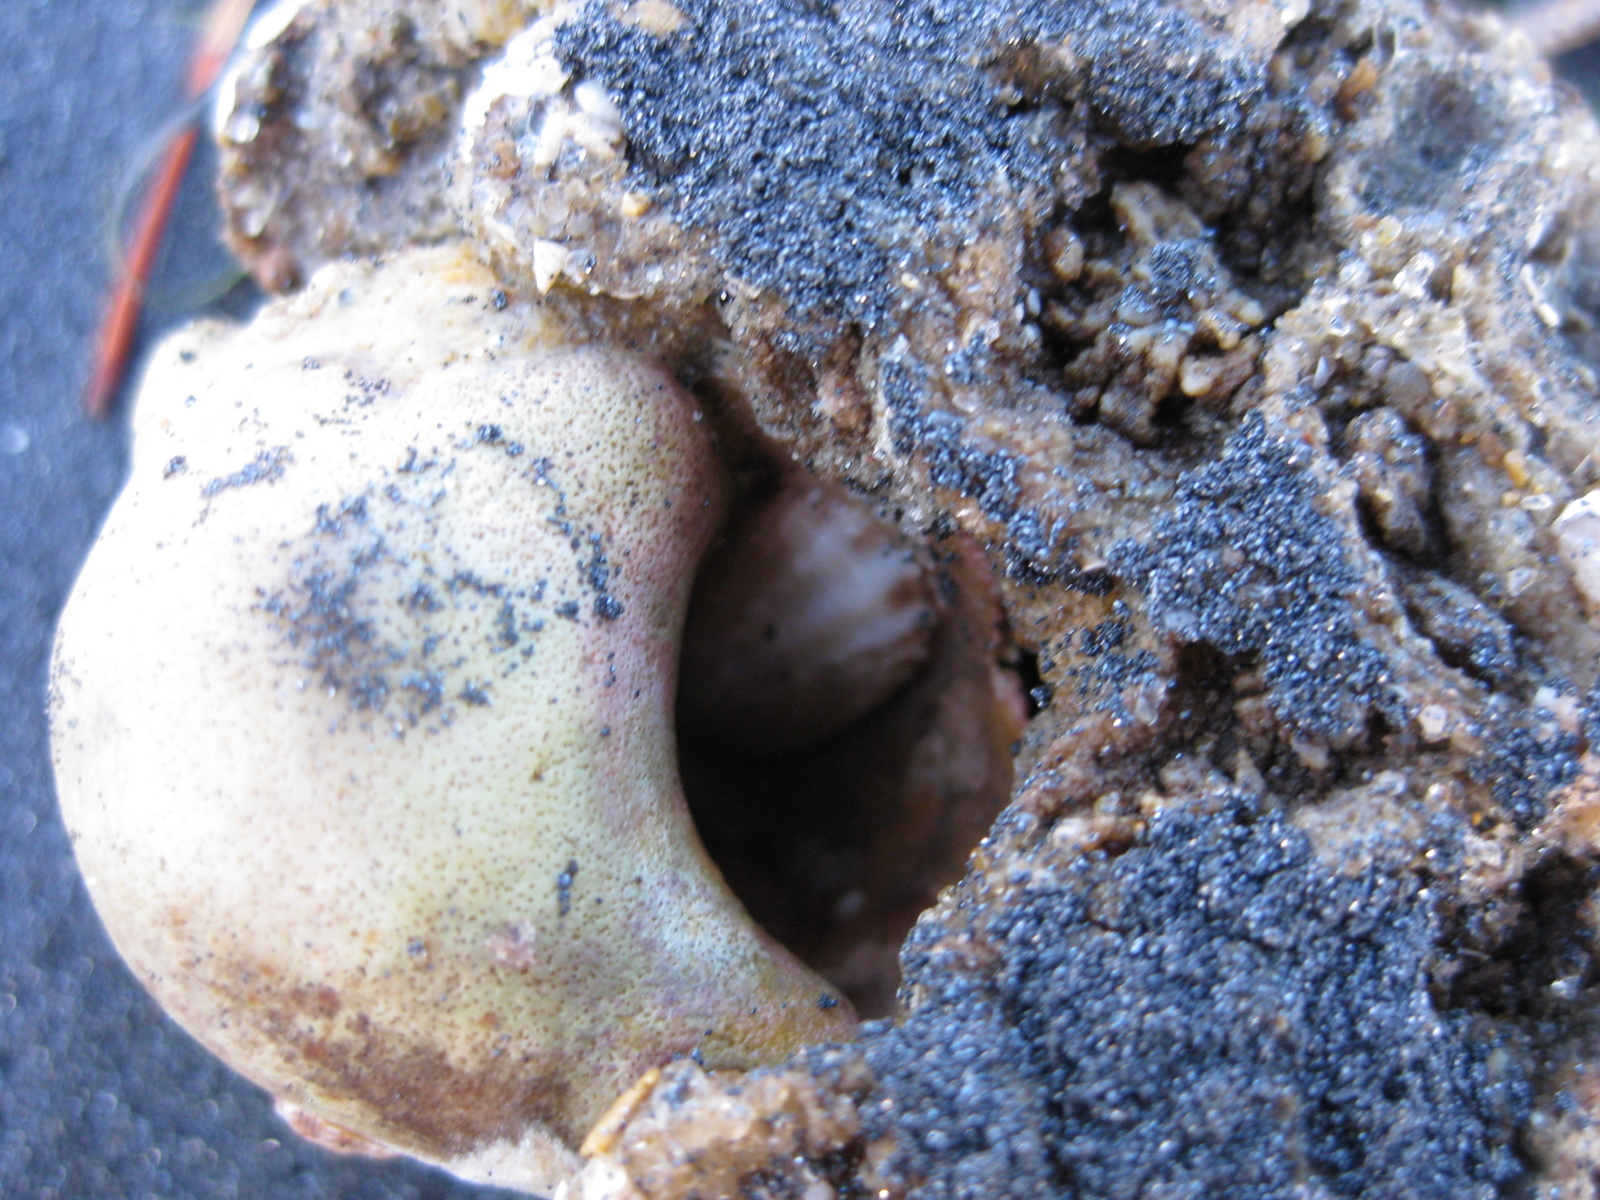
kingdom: Animalia
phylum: Mollusca
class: Gastropoda
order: Littorinimorpha
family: Calyptraeidae
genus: Maoricrypta
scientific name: Maoricrypta costata
